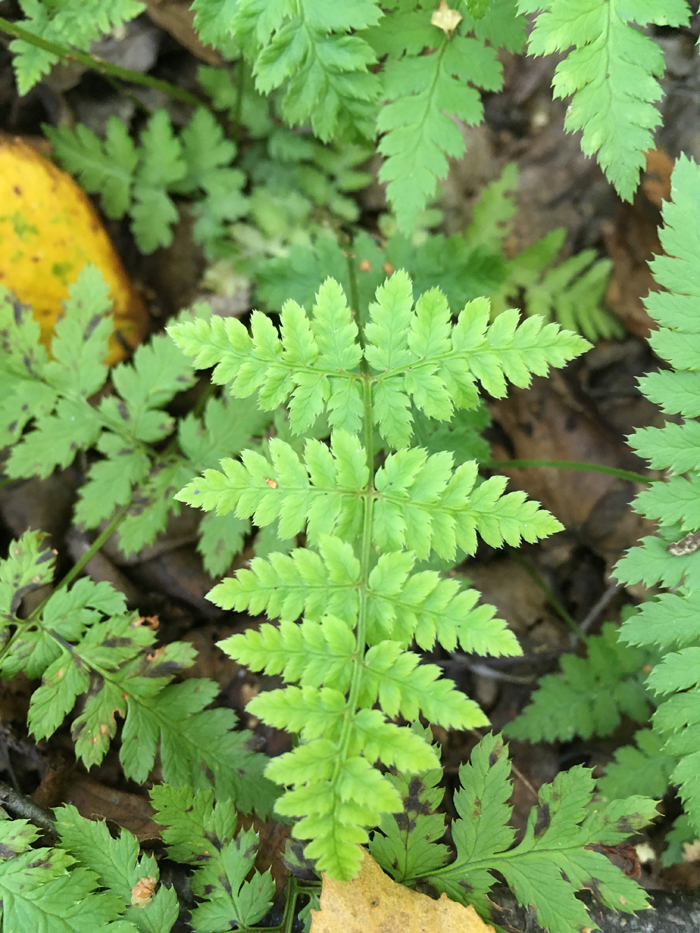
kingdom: Plantae
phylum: Tracheophyta
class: Polypodiopsida
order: Polypodiales
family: Dryopteridaceae
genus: Dryopteris
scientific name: Dryopteris carthusiana
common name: Narrow buckler-fern
